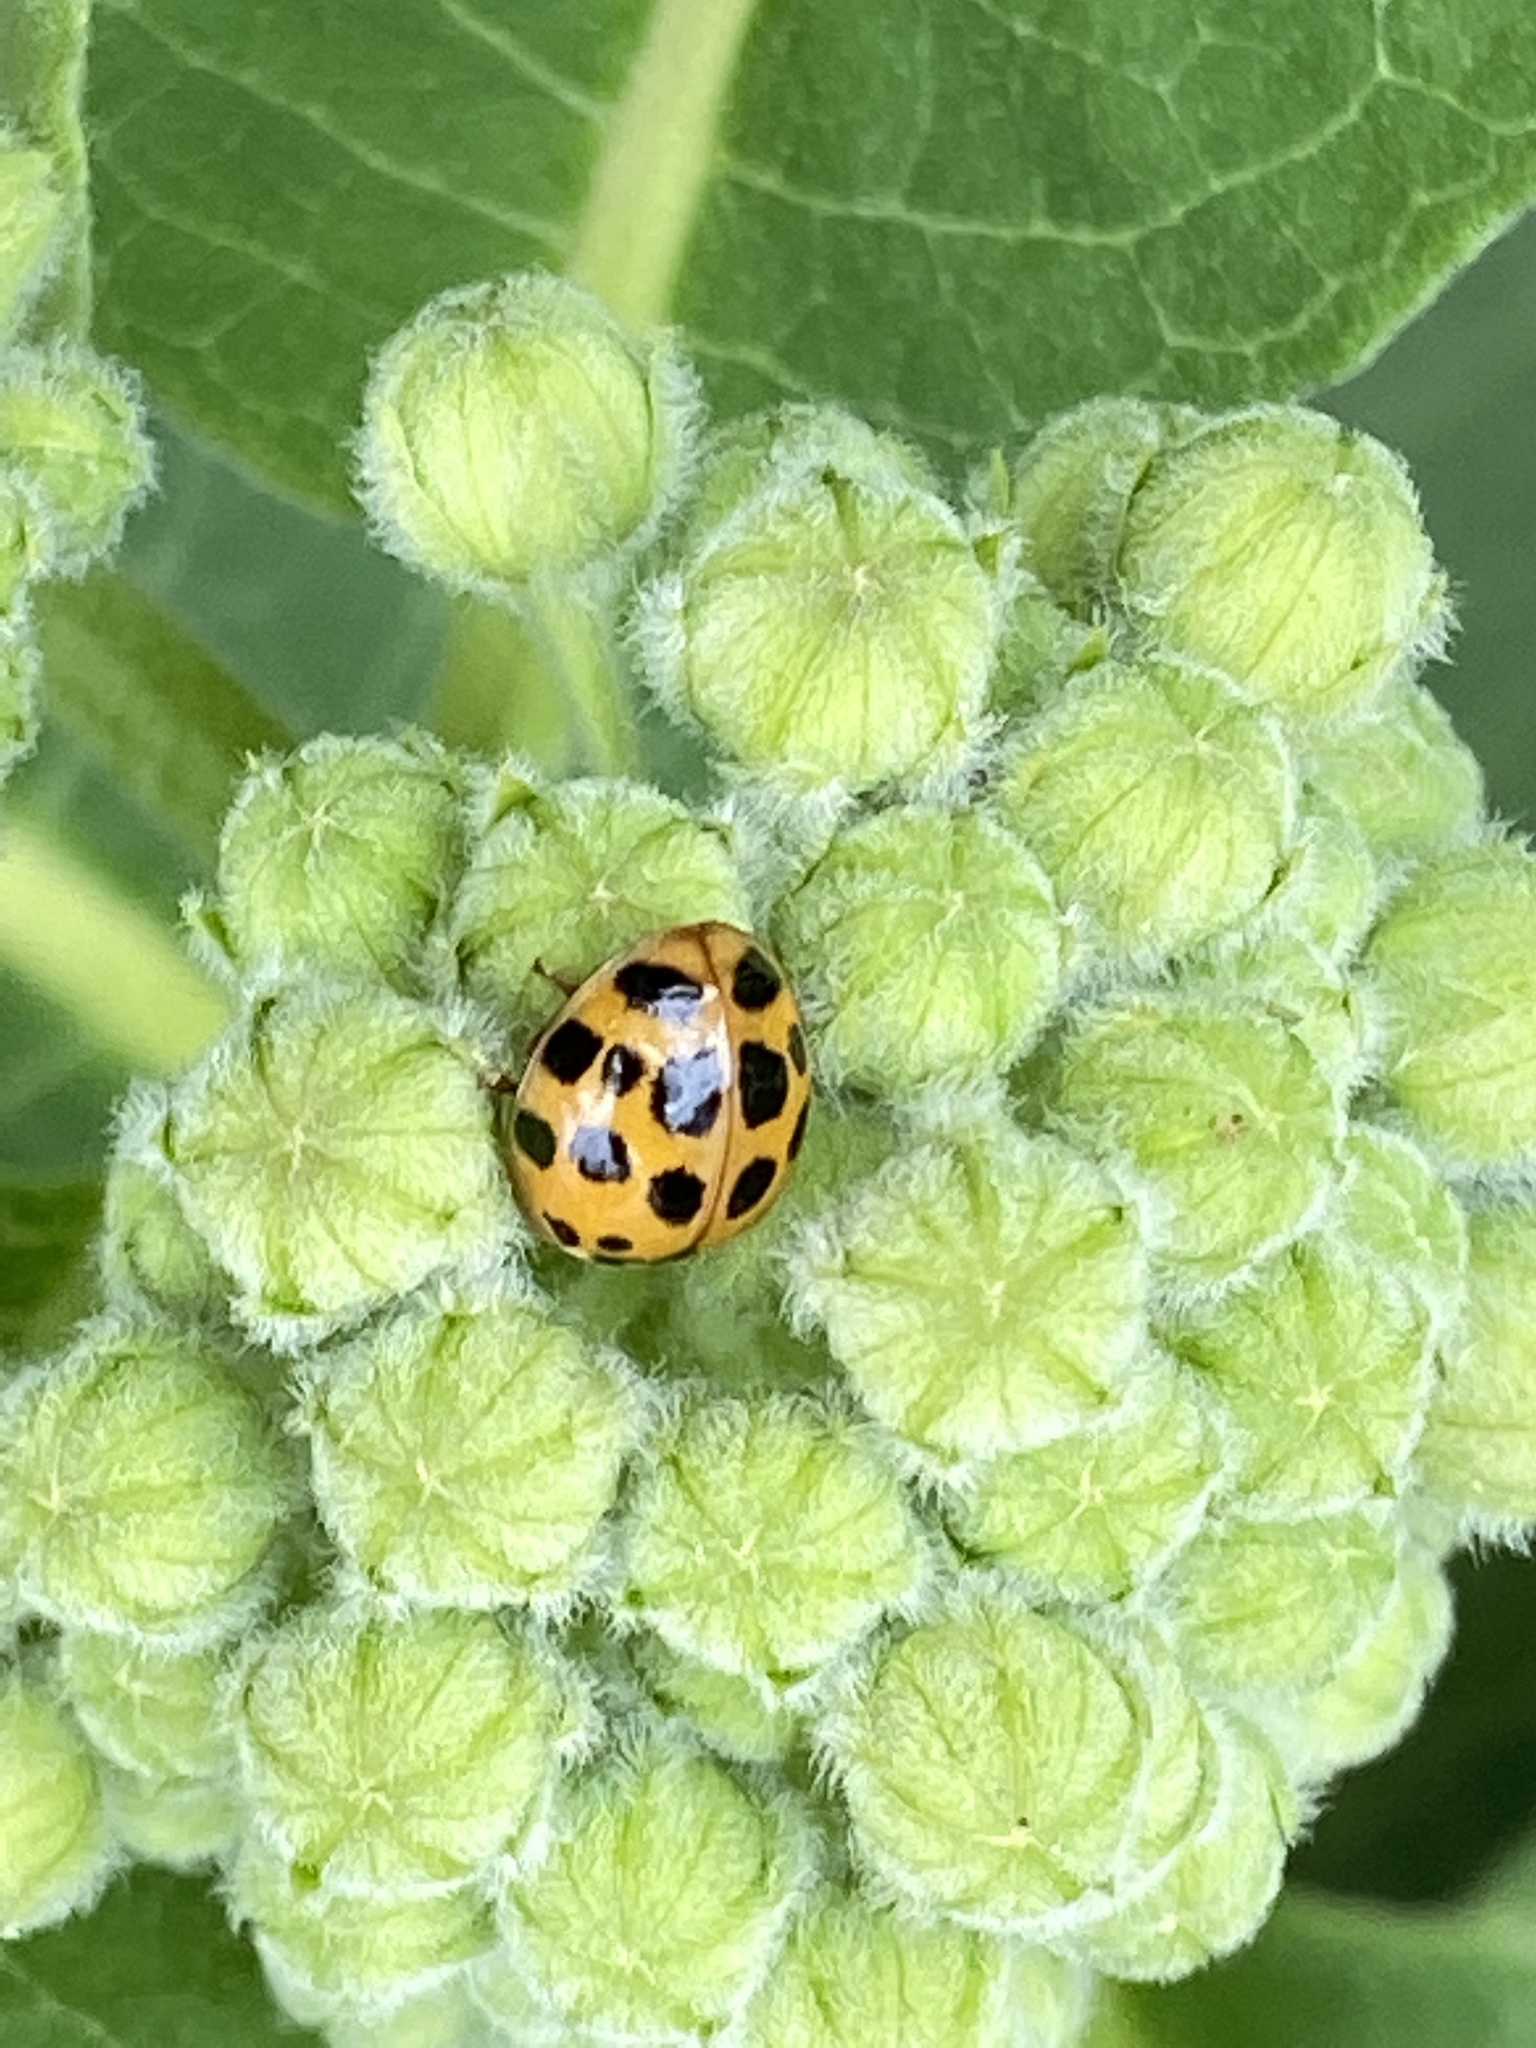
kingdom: Animalia
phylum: Arthropoda
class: Insecta
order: Coleoptera
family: Coccinellidae
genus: Harmonia
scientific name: Harmonia axyridis
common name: Harlequin ladybird
